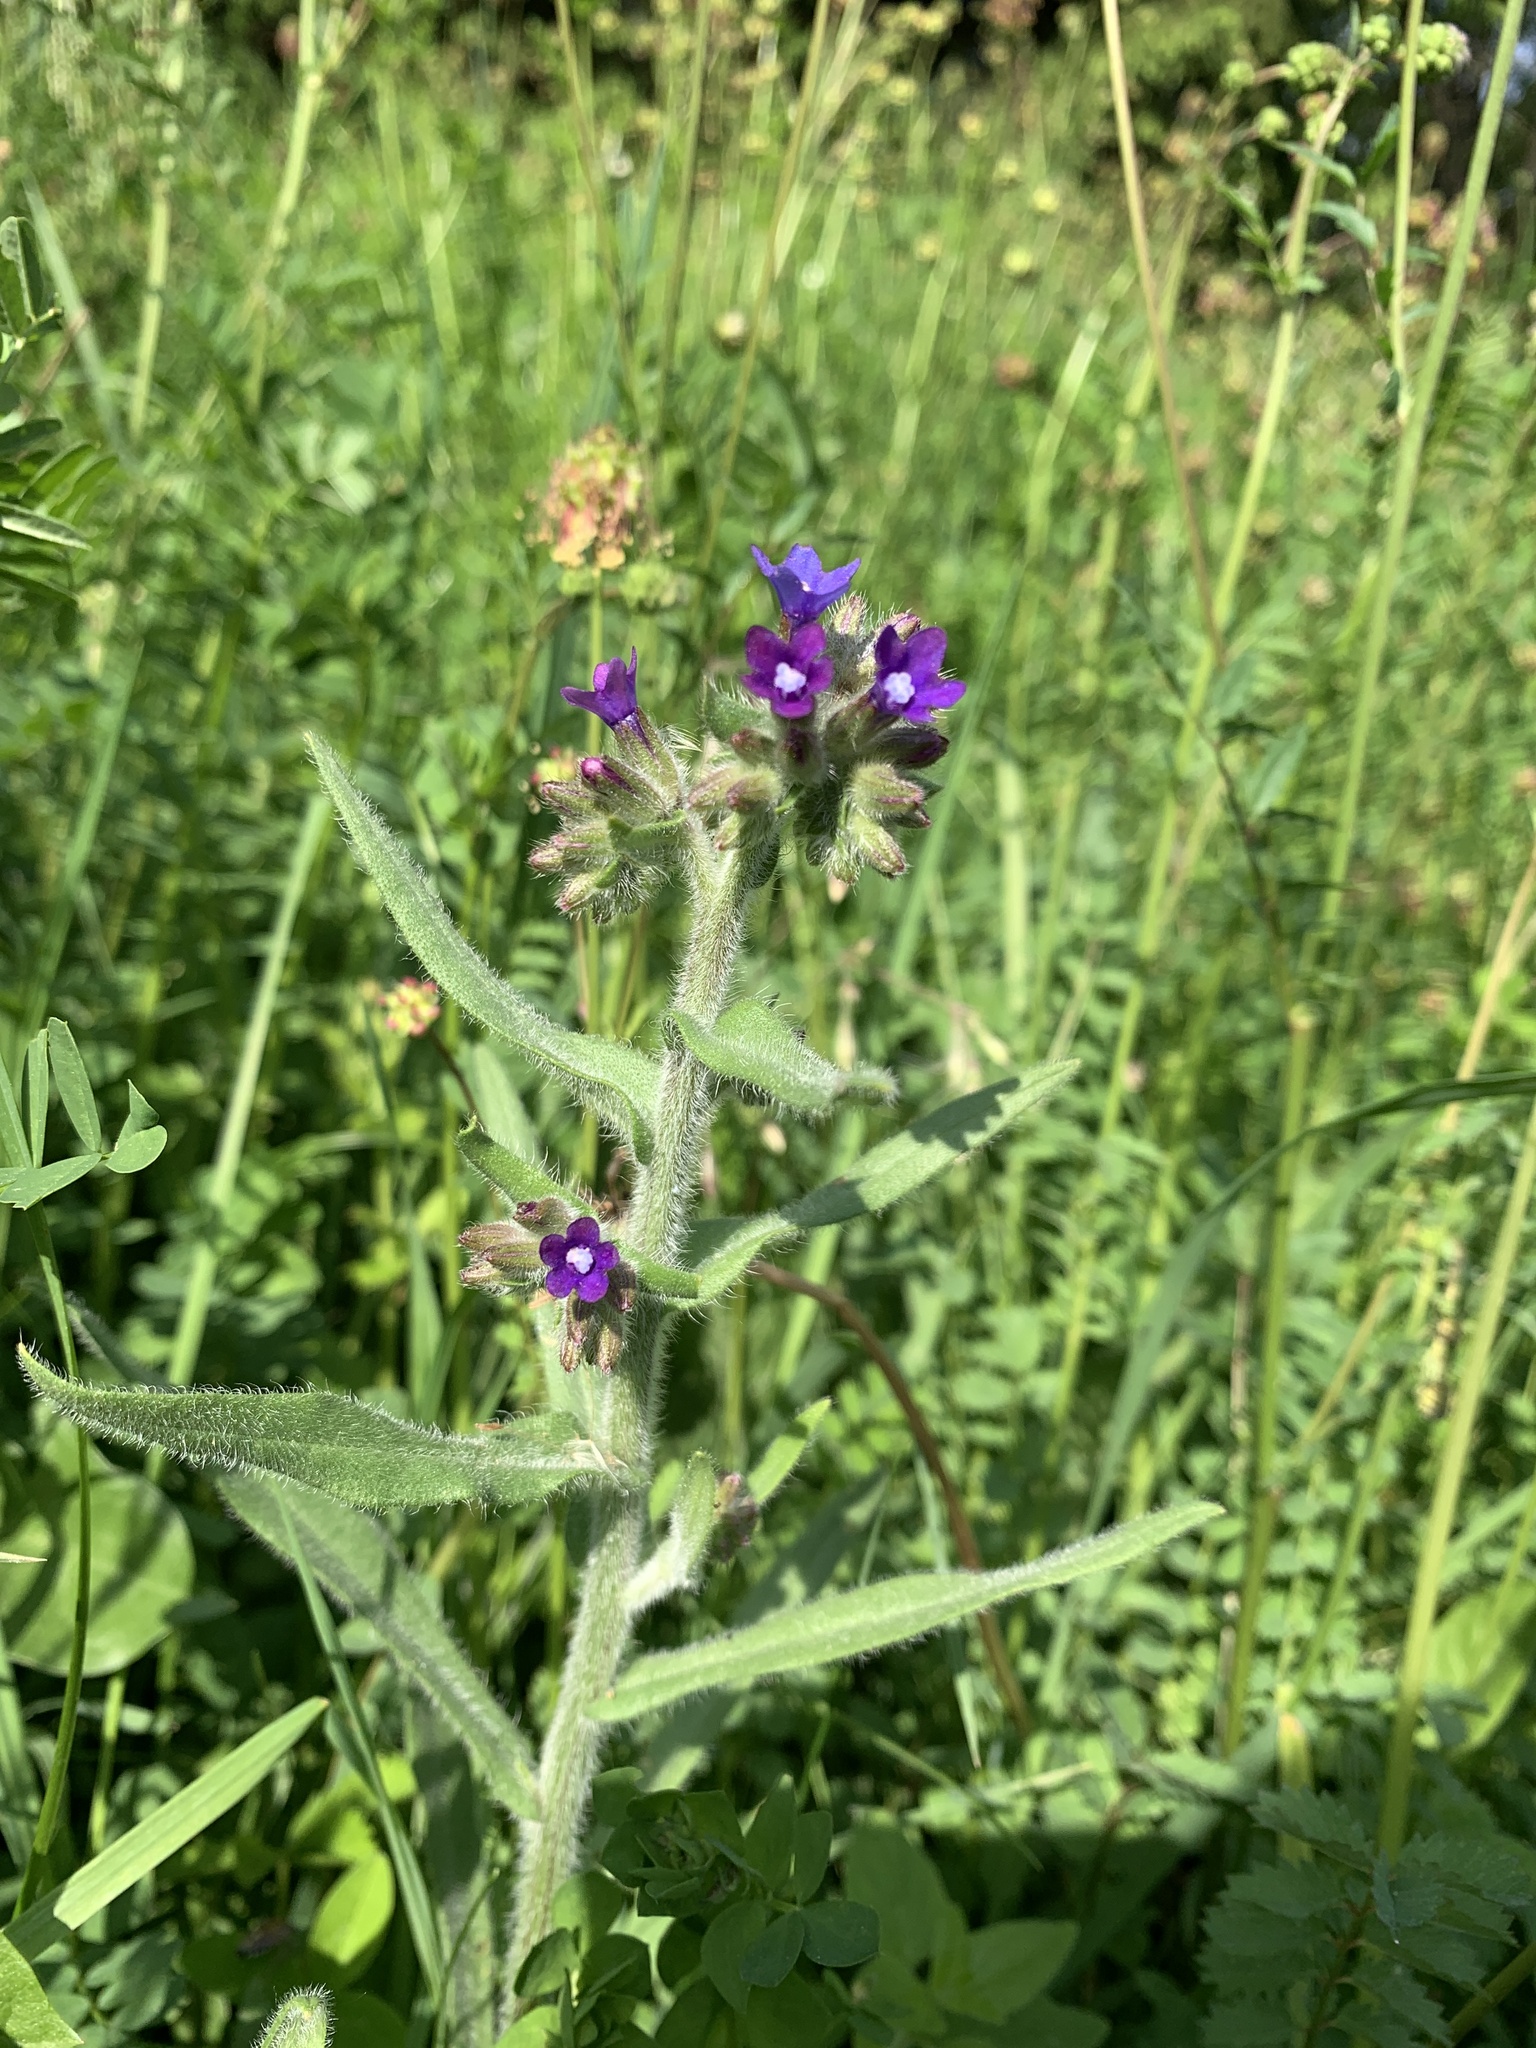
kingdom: Plantae
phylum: Tracheophyta
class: Magnoliopsida
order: Boraginales
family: Boraginaceae
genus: Anchusa
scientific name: Anchusa officinalis
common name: Alkanet
